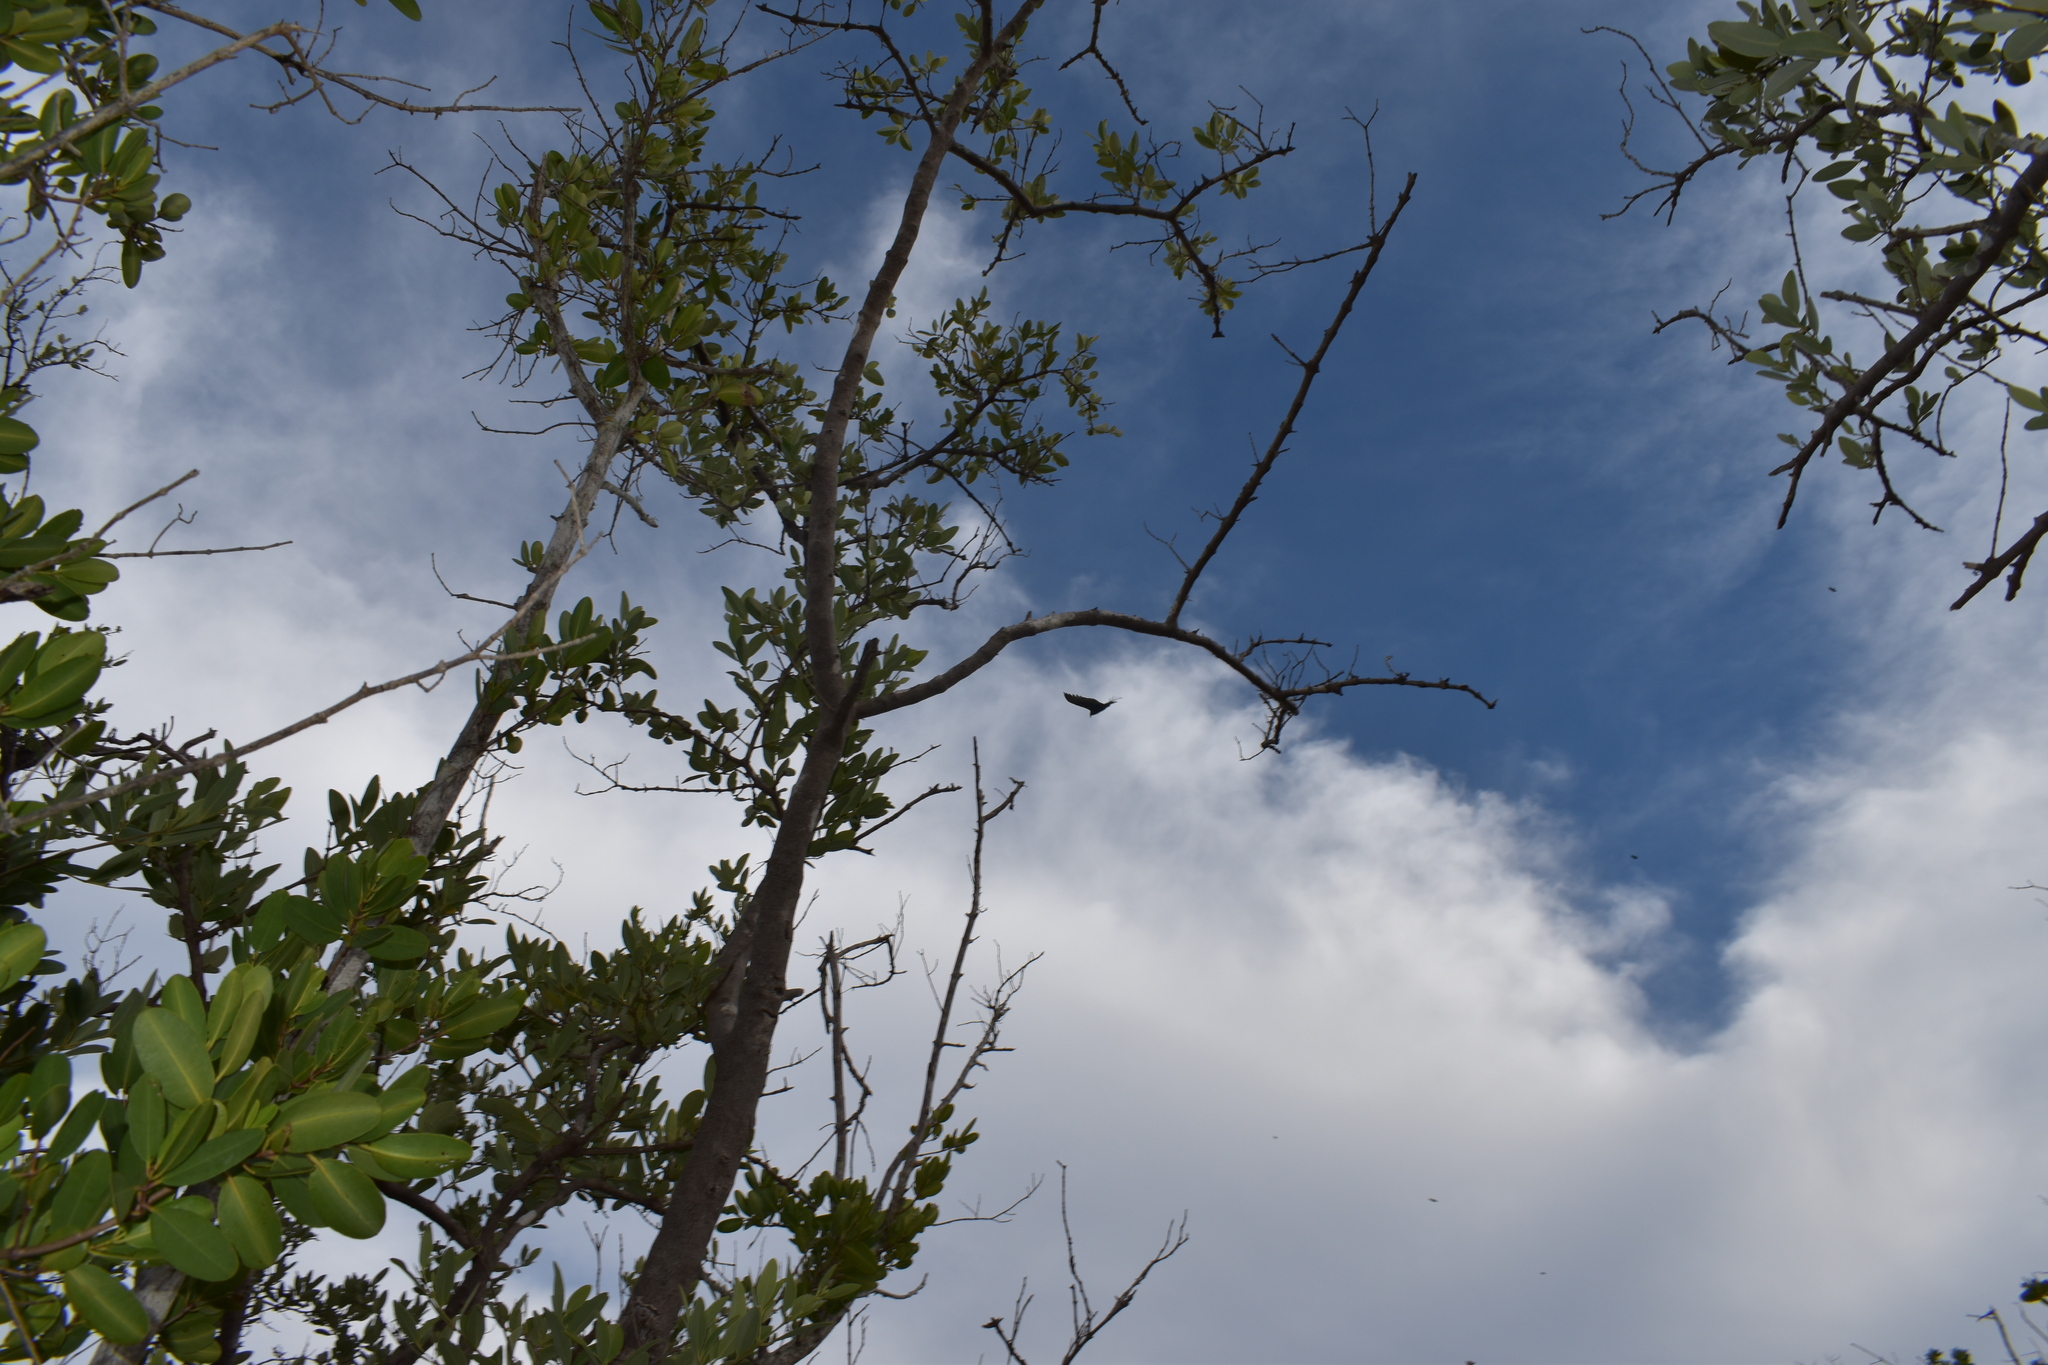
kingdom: Animalia
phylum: Chordata
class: Aves
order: Accipitriformes
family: Cathartidae
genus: Cathartes
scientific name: Cathartes aura
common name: Turkey vulture
